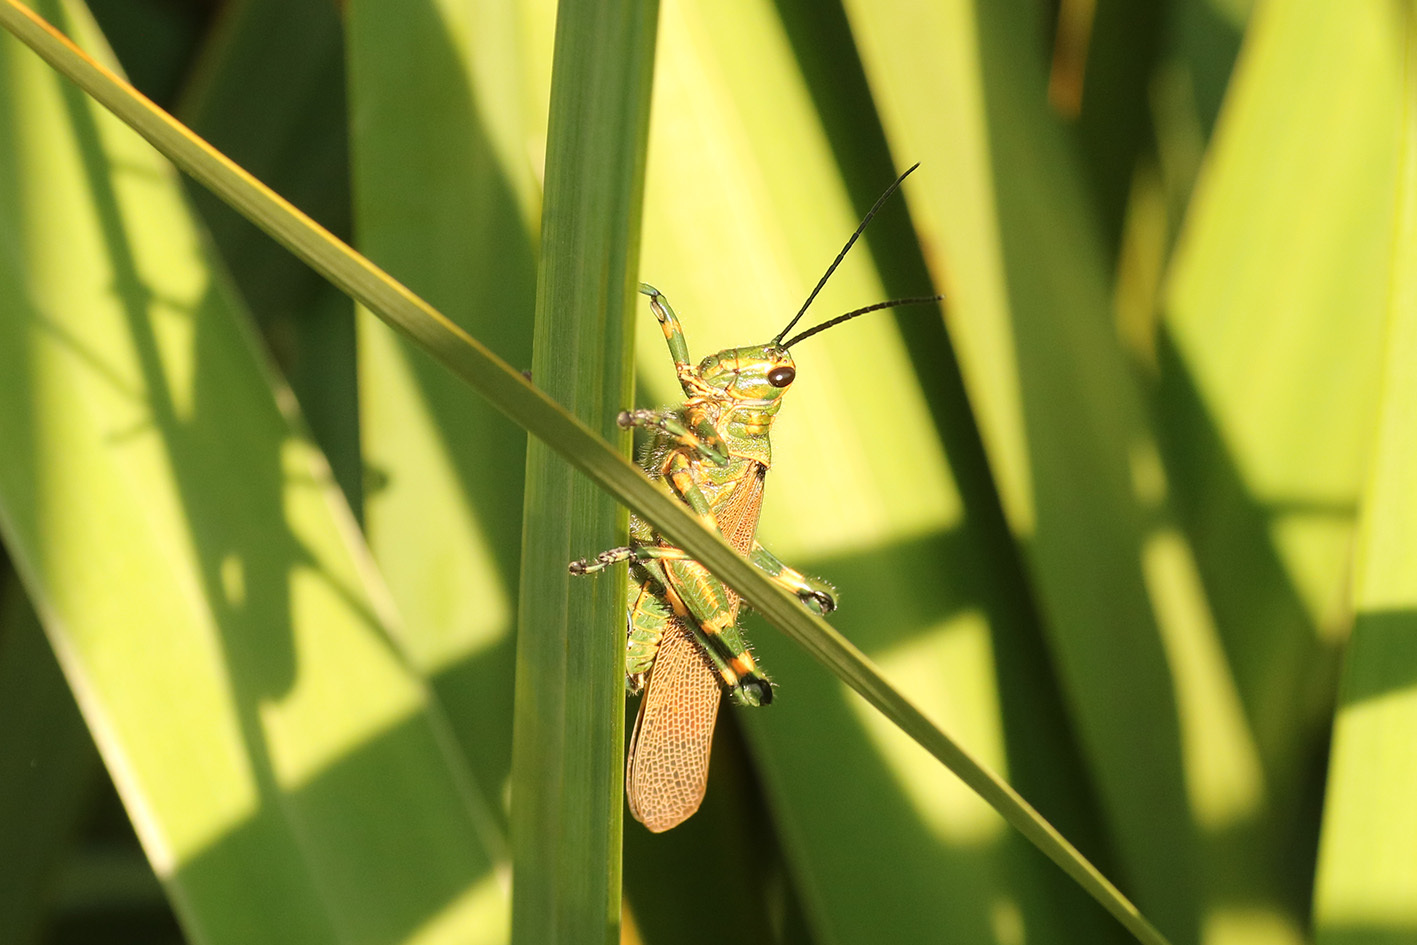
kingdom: Animalia
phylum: Arthropoda
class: Insecta
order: Orthoptera
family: Romaleidae
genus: Chromacris
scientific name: Chromacris speciosa
